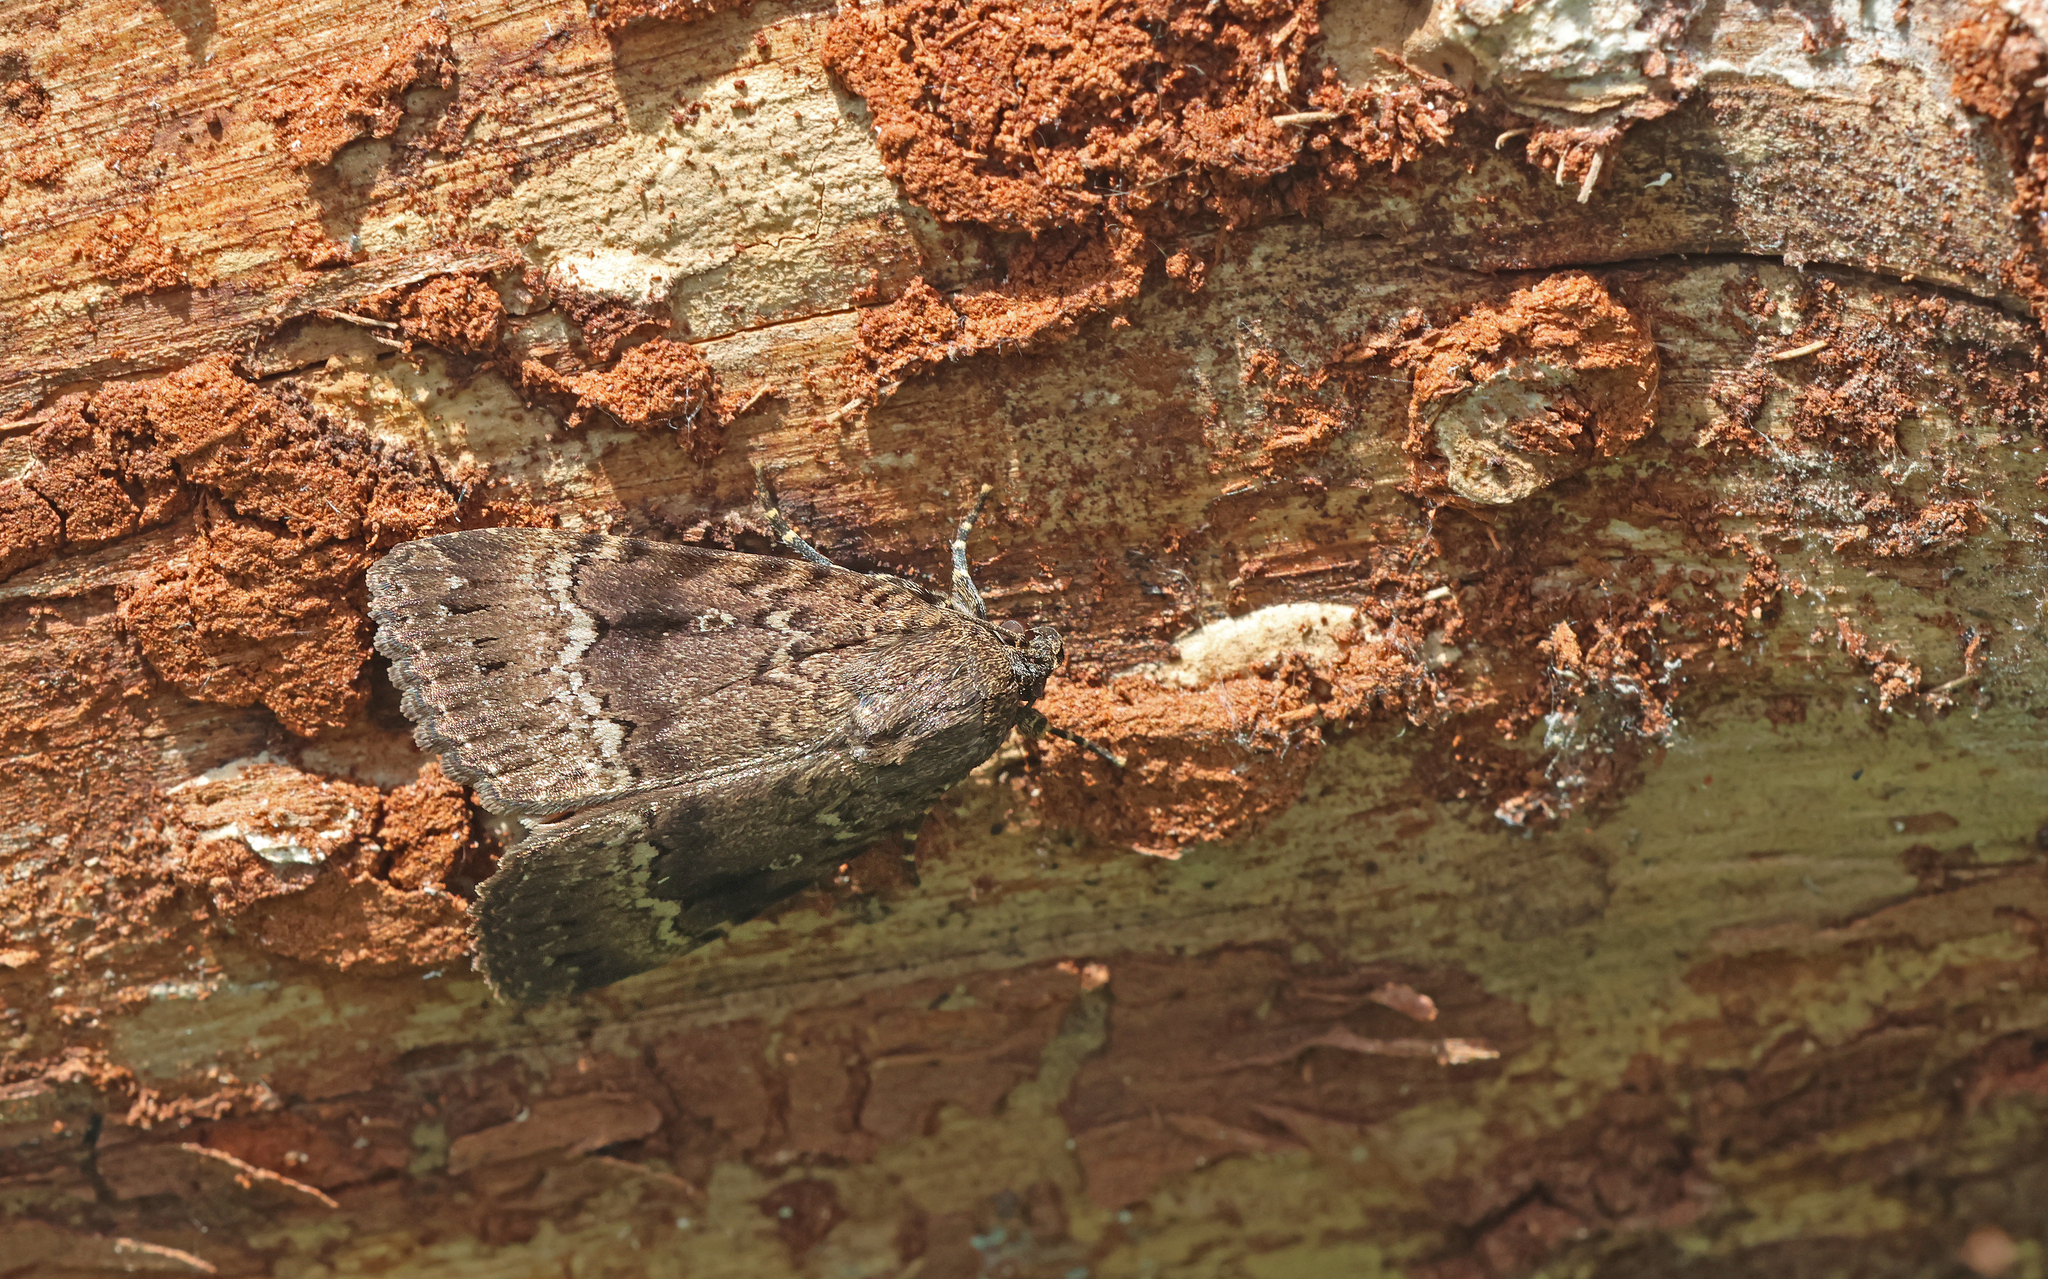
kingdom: Animalia
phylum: Arthropoda
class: Insecta
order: Lepidoptera
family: Noctuidae
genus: Amphipyra
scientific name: Amphipyra pyramidea
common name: Copper underwing
